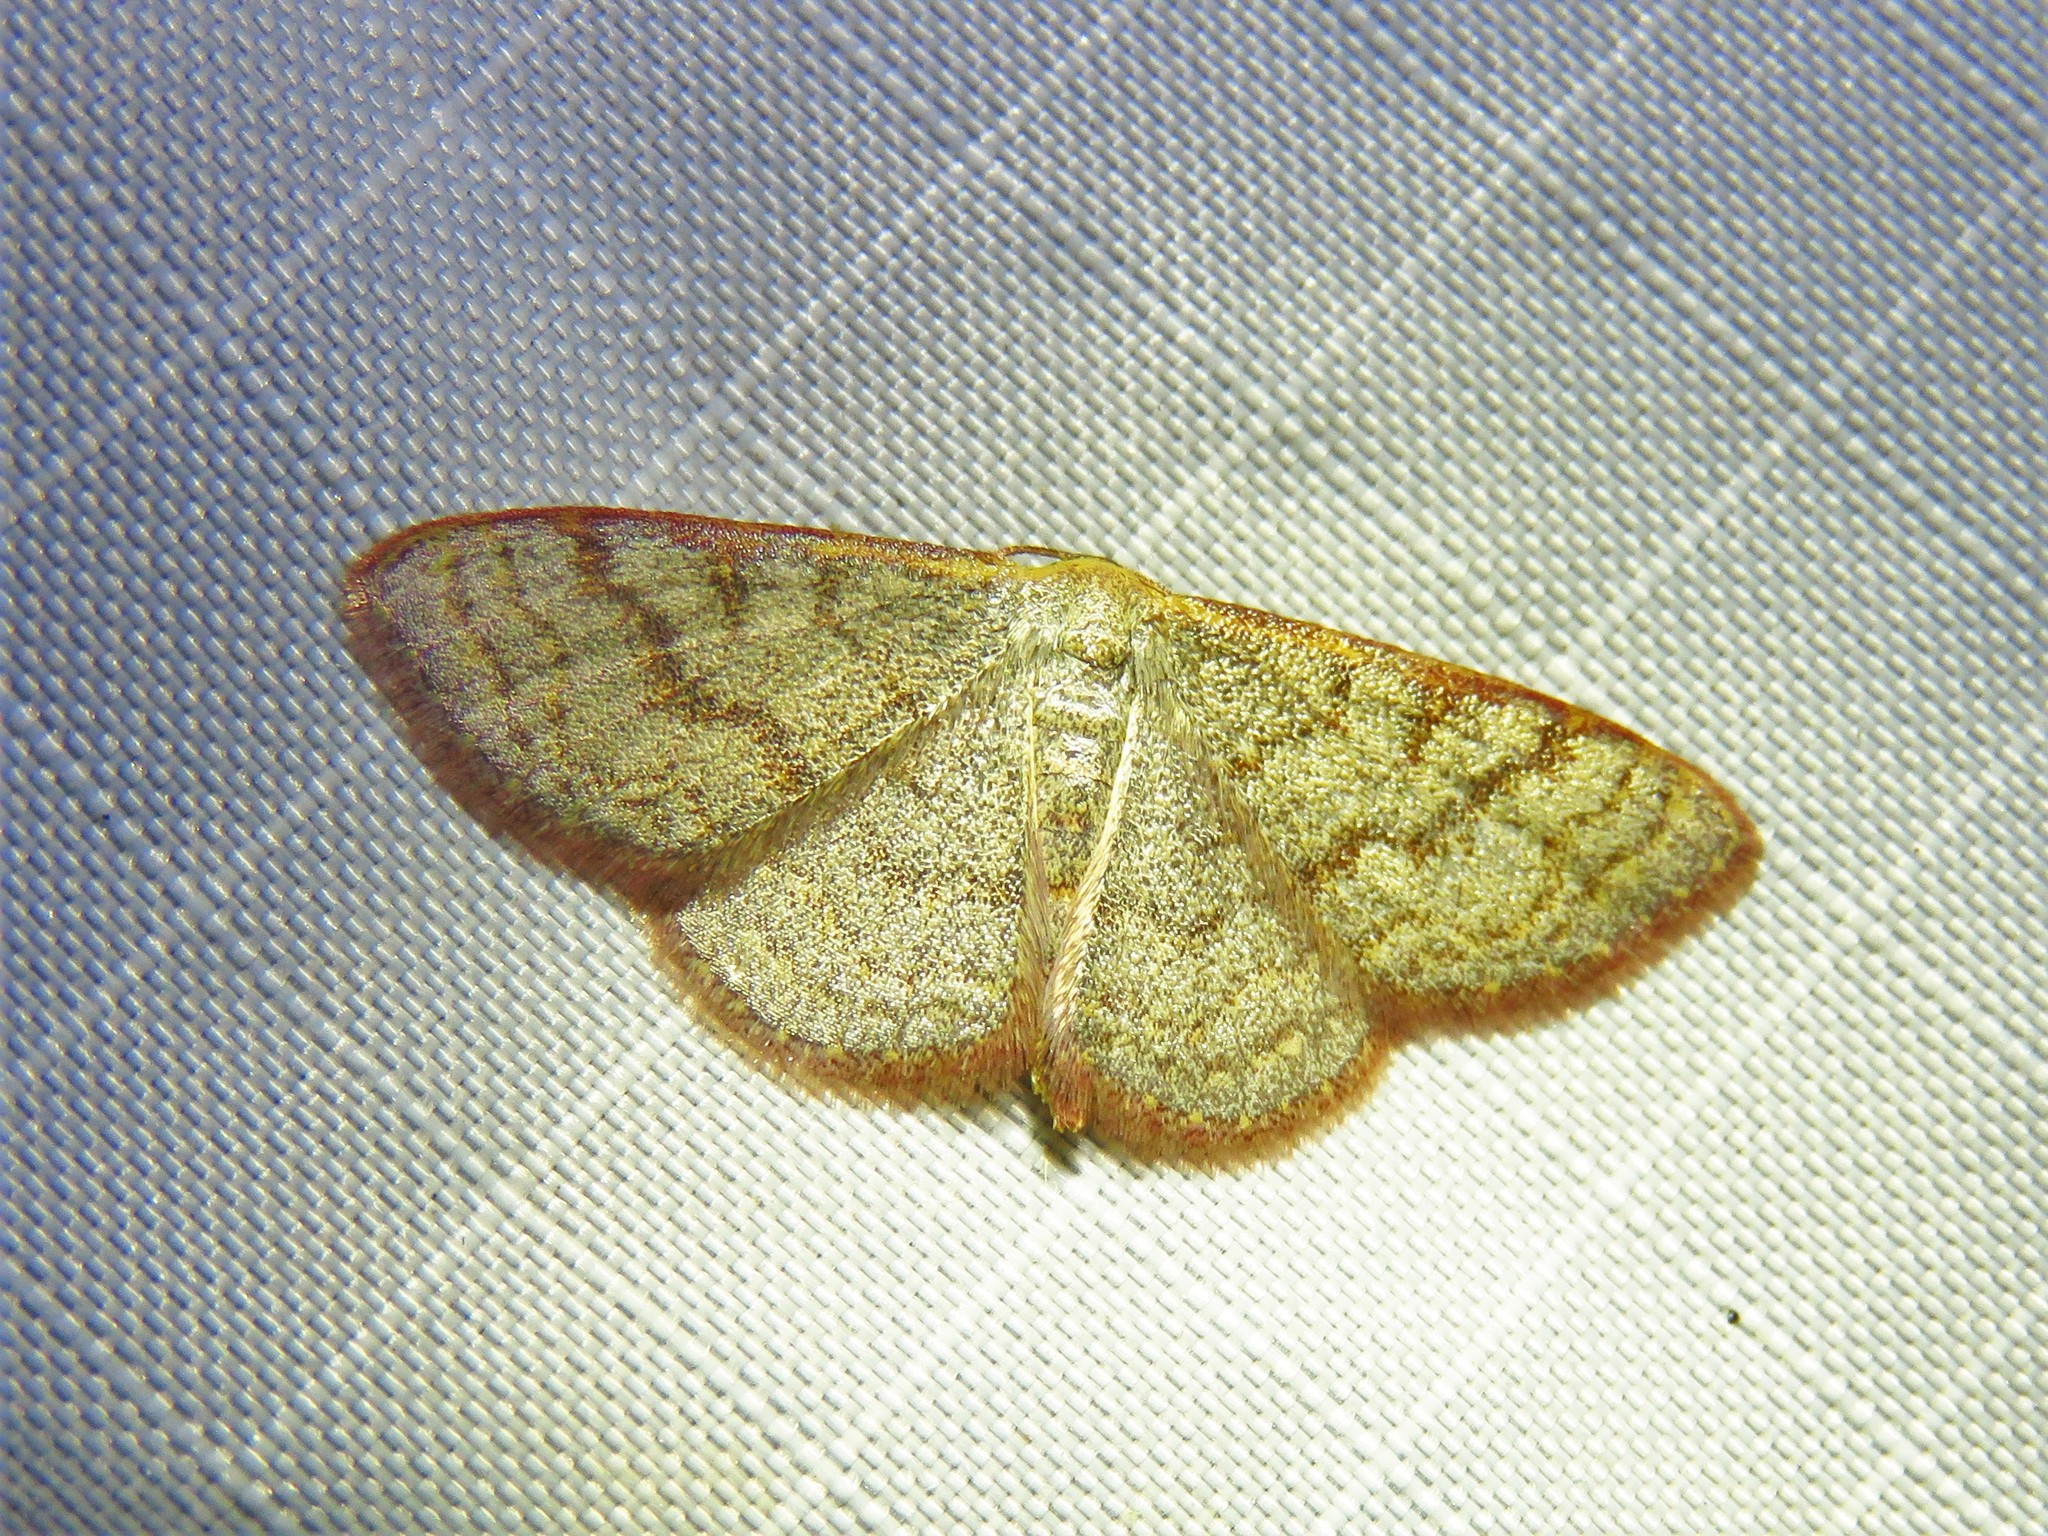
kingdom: Animalia
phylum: Arthropoda
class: Insecta
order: Lepidoptera
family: Geometridae
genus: Leptostales
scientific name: Leptostales pannaria
